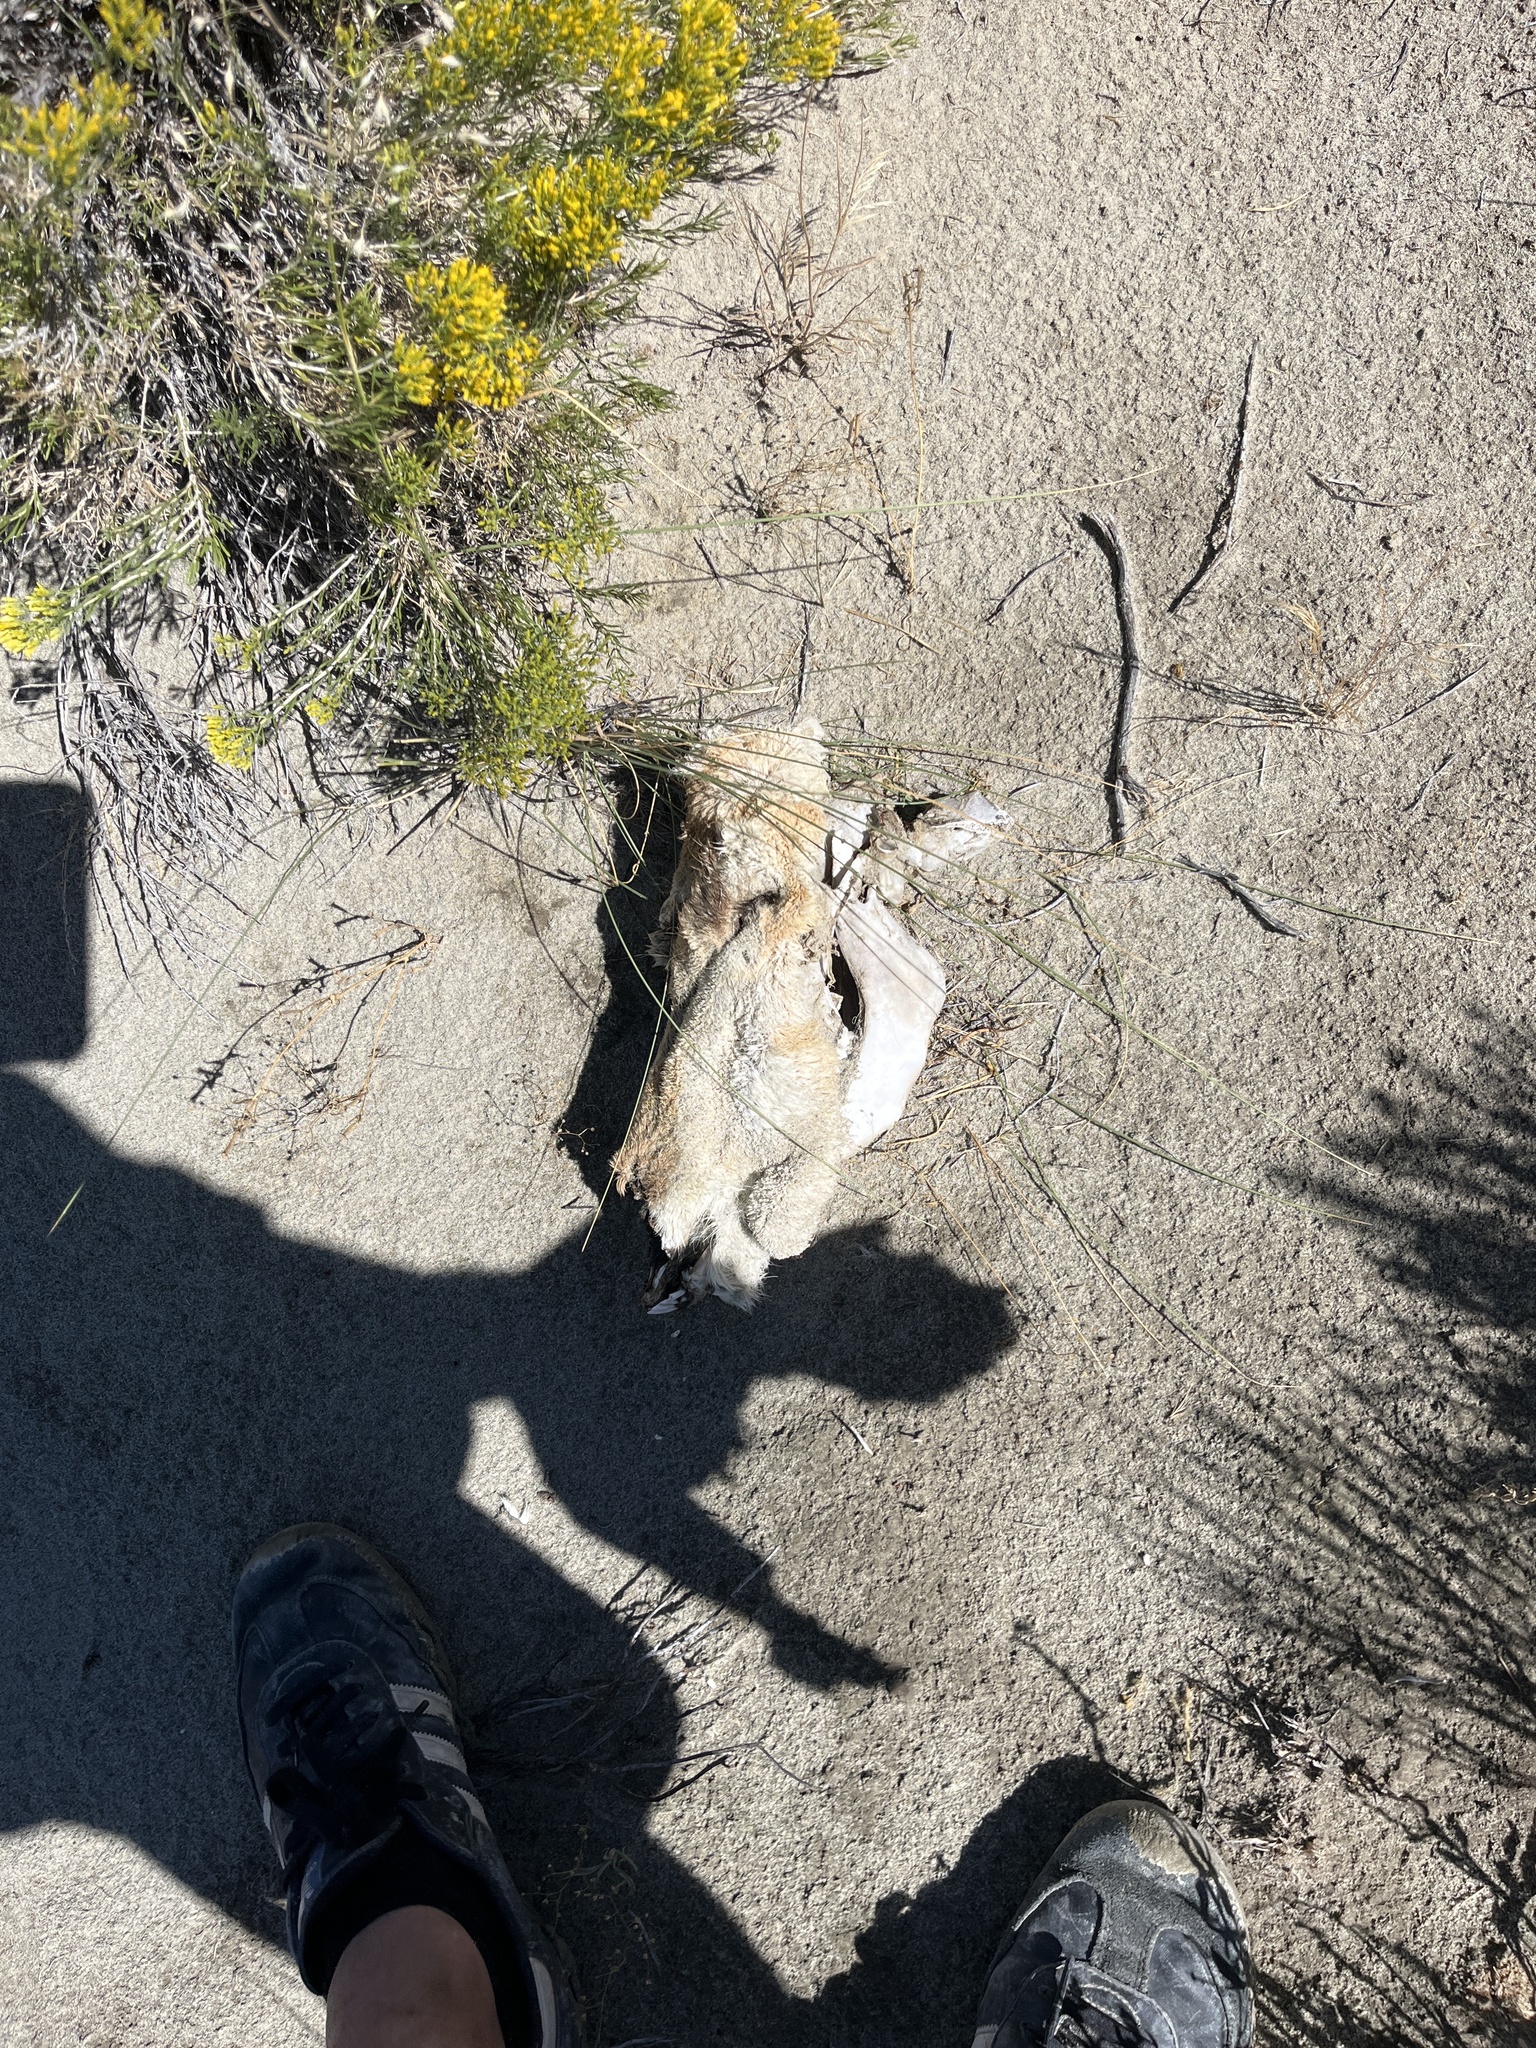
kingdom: Animalia
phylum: Chordata
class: Mammalia
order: Artiodactyla
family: Antilocapridae
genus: Antilocapra
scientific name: Antilocapra americana
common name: Pronghorn
